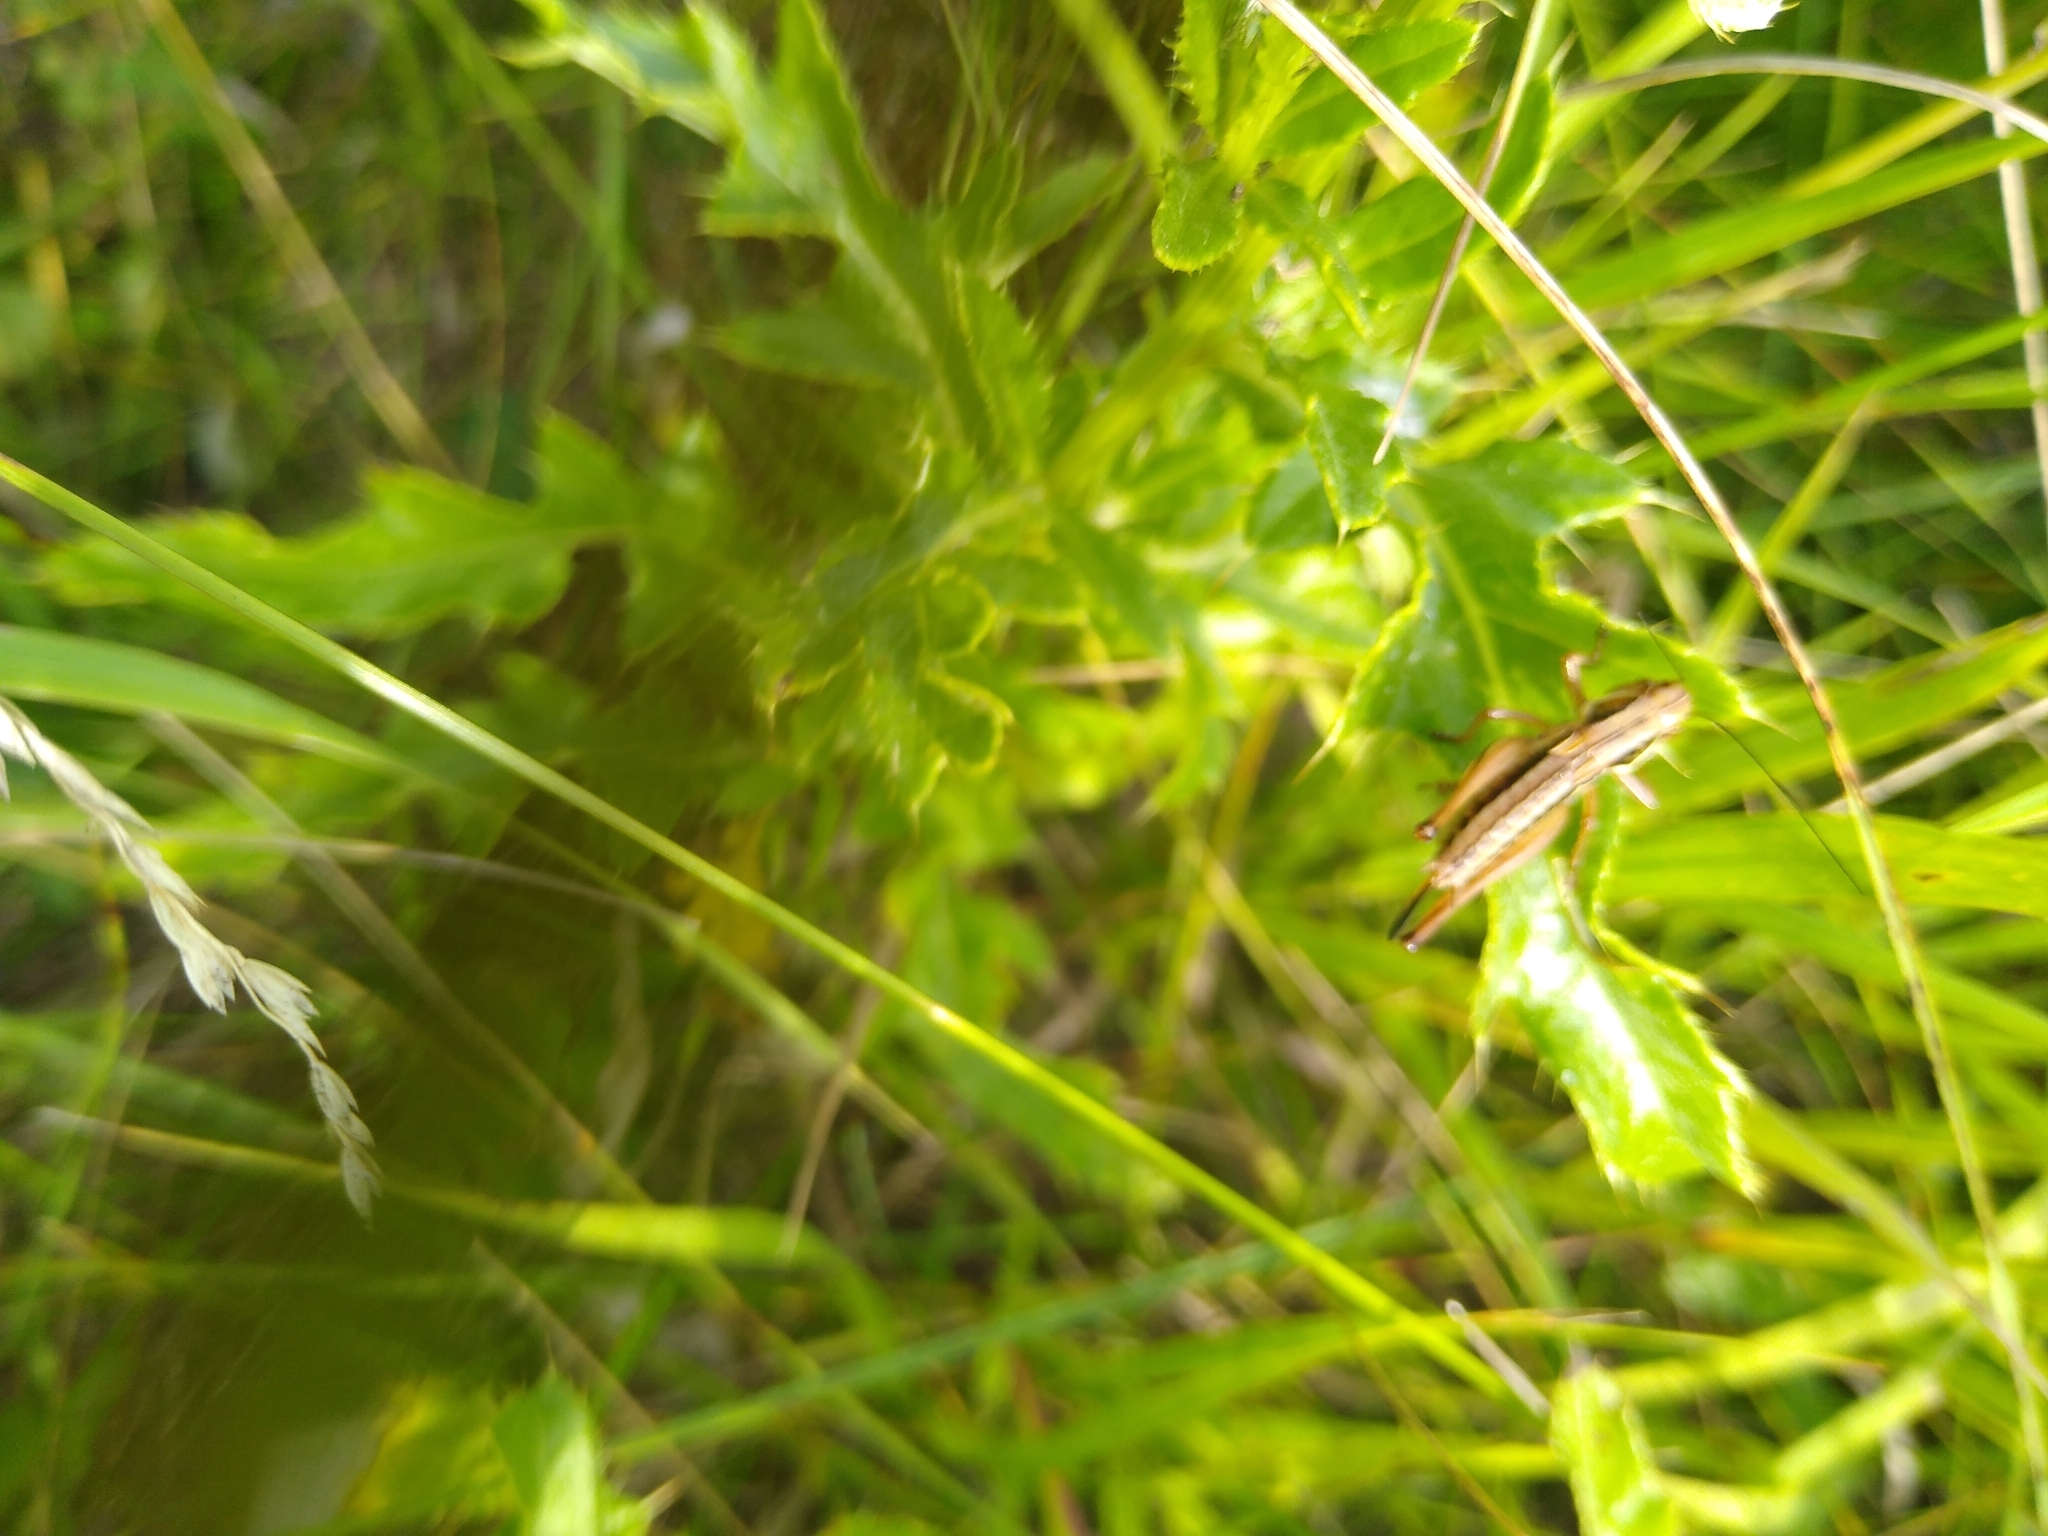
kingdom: Animalia
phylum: Arthropoda
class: Insecta
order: Orthoptera
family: Tettigoniidae
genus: Roeseliana
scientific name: Roeseliana roeselii
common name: Roesel's bush cricket
